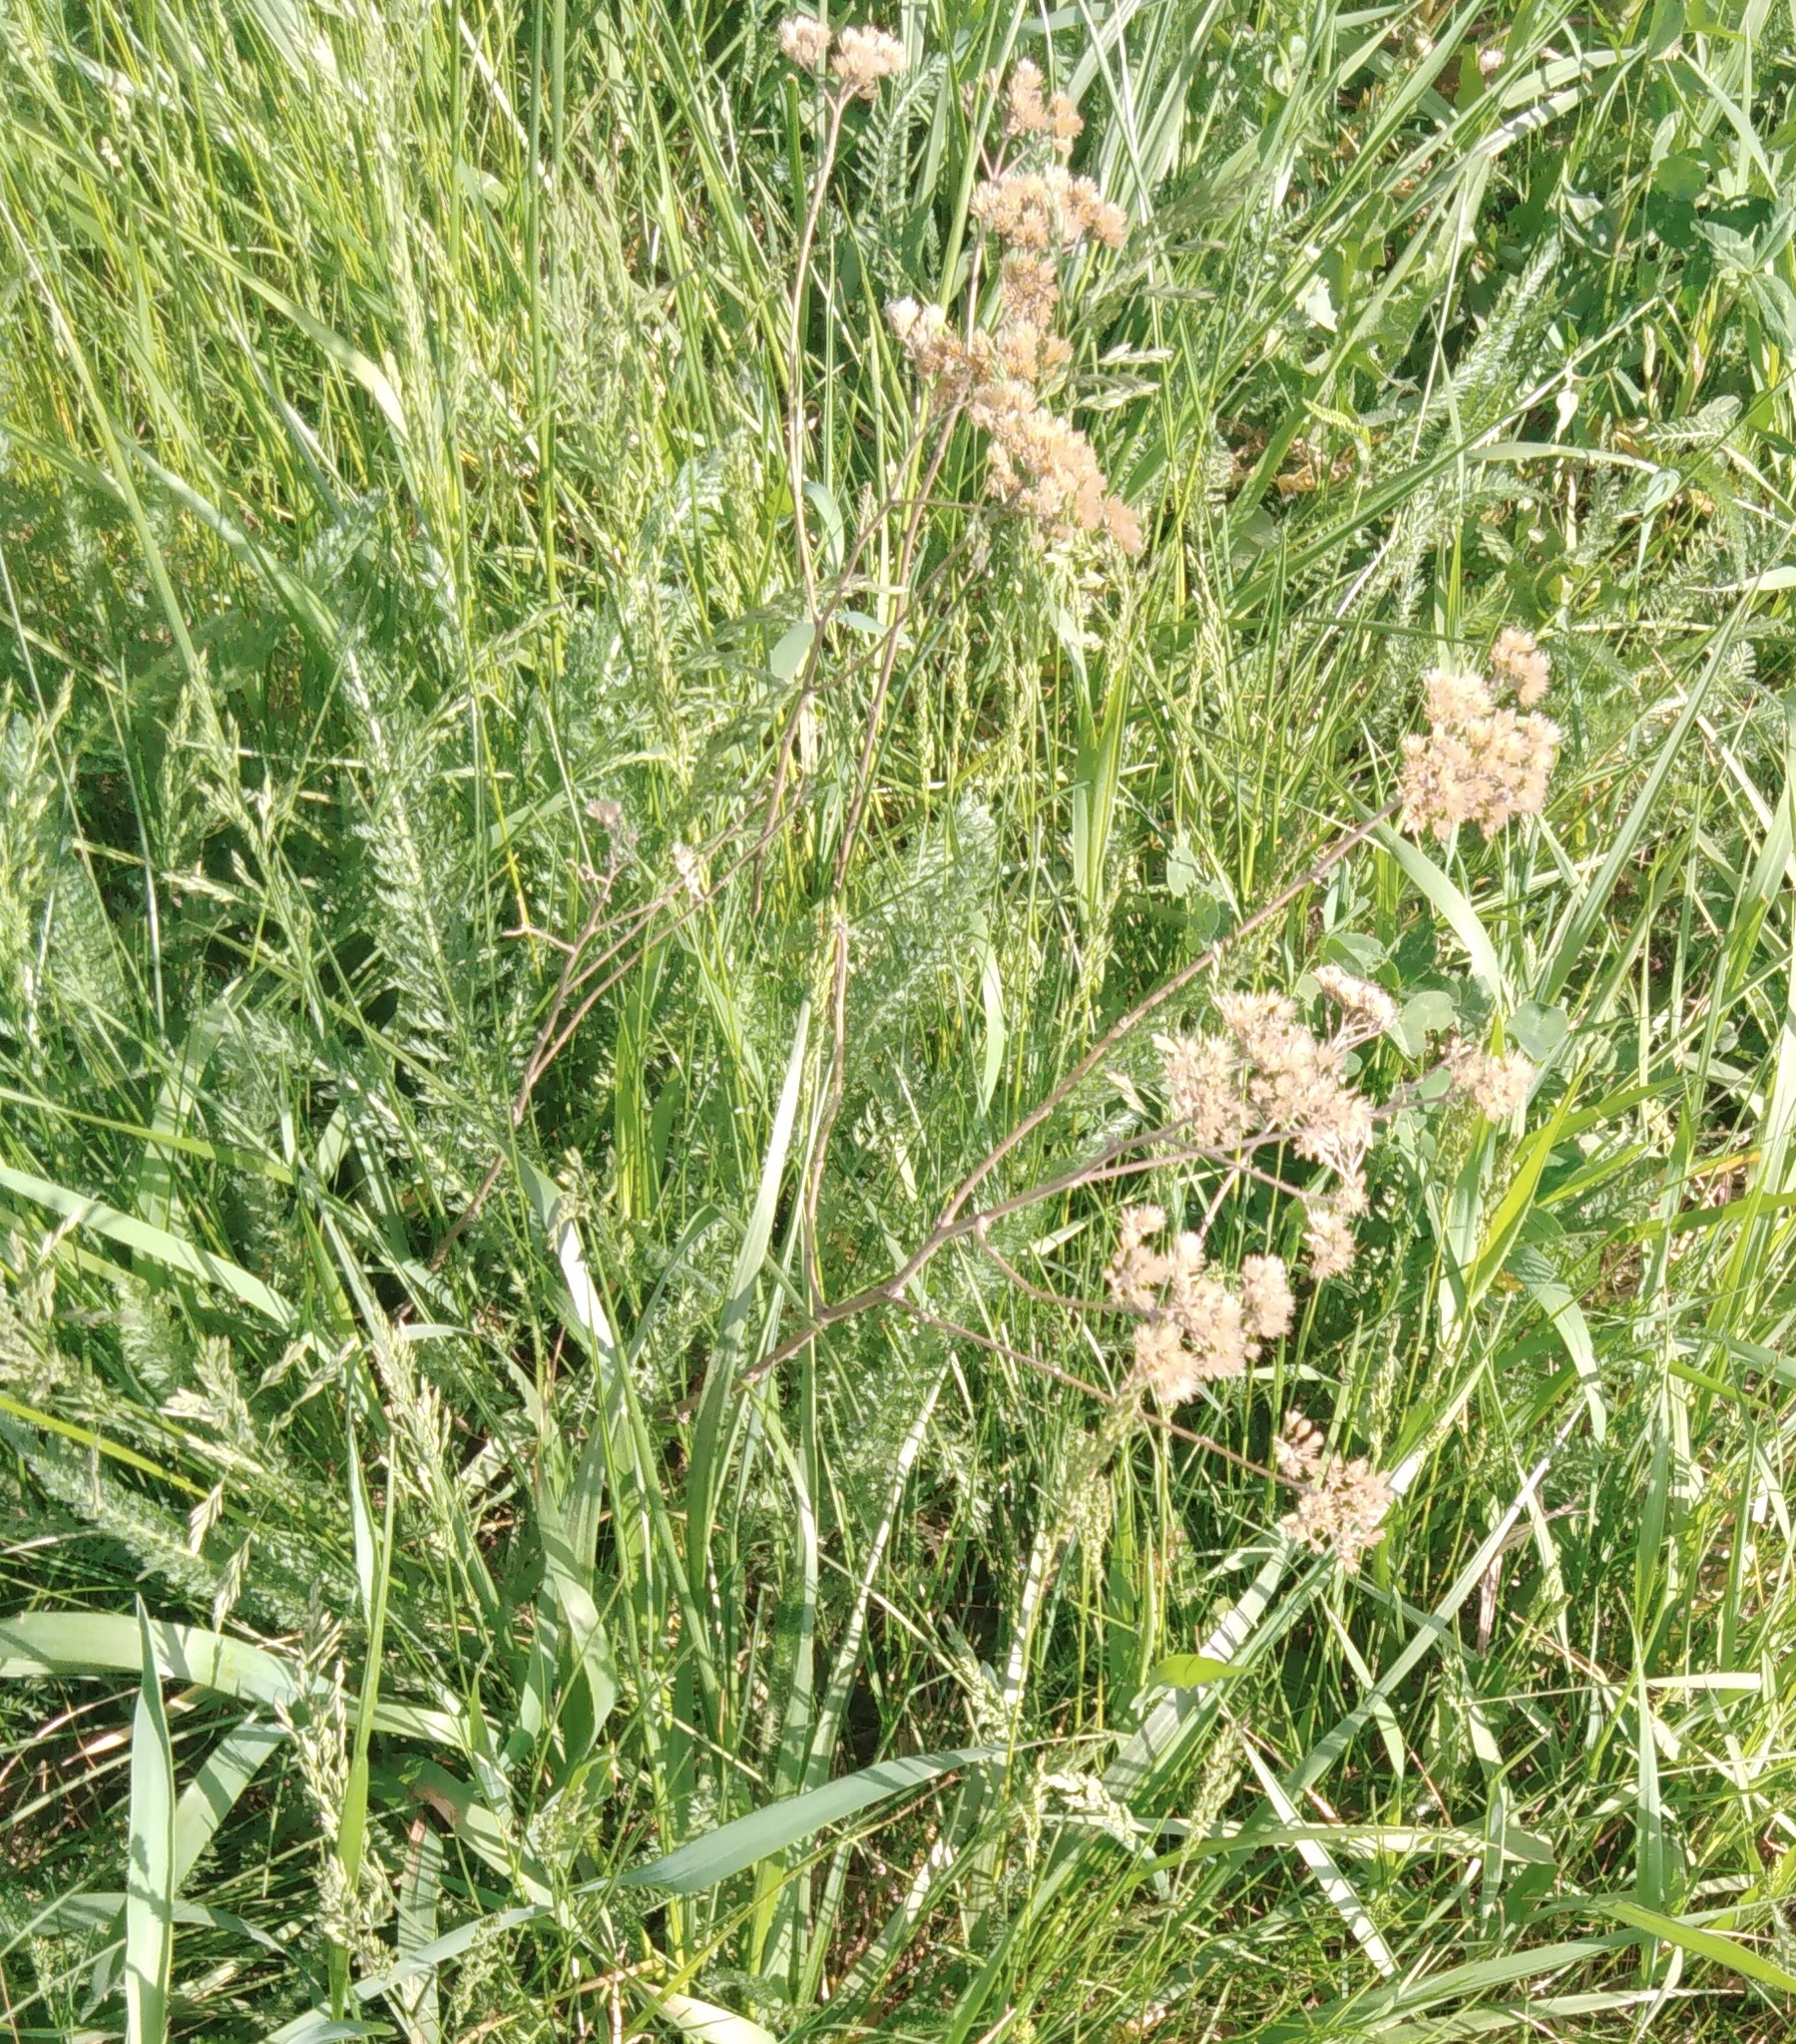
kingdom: Plantae
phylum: Tracheophyta
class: Magnoliopsida
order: Asterales
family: Asteraceae
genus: Achillea
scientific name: Achillea millefolium
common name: Yarrow
